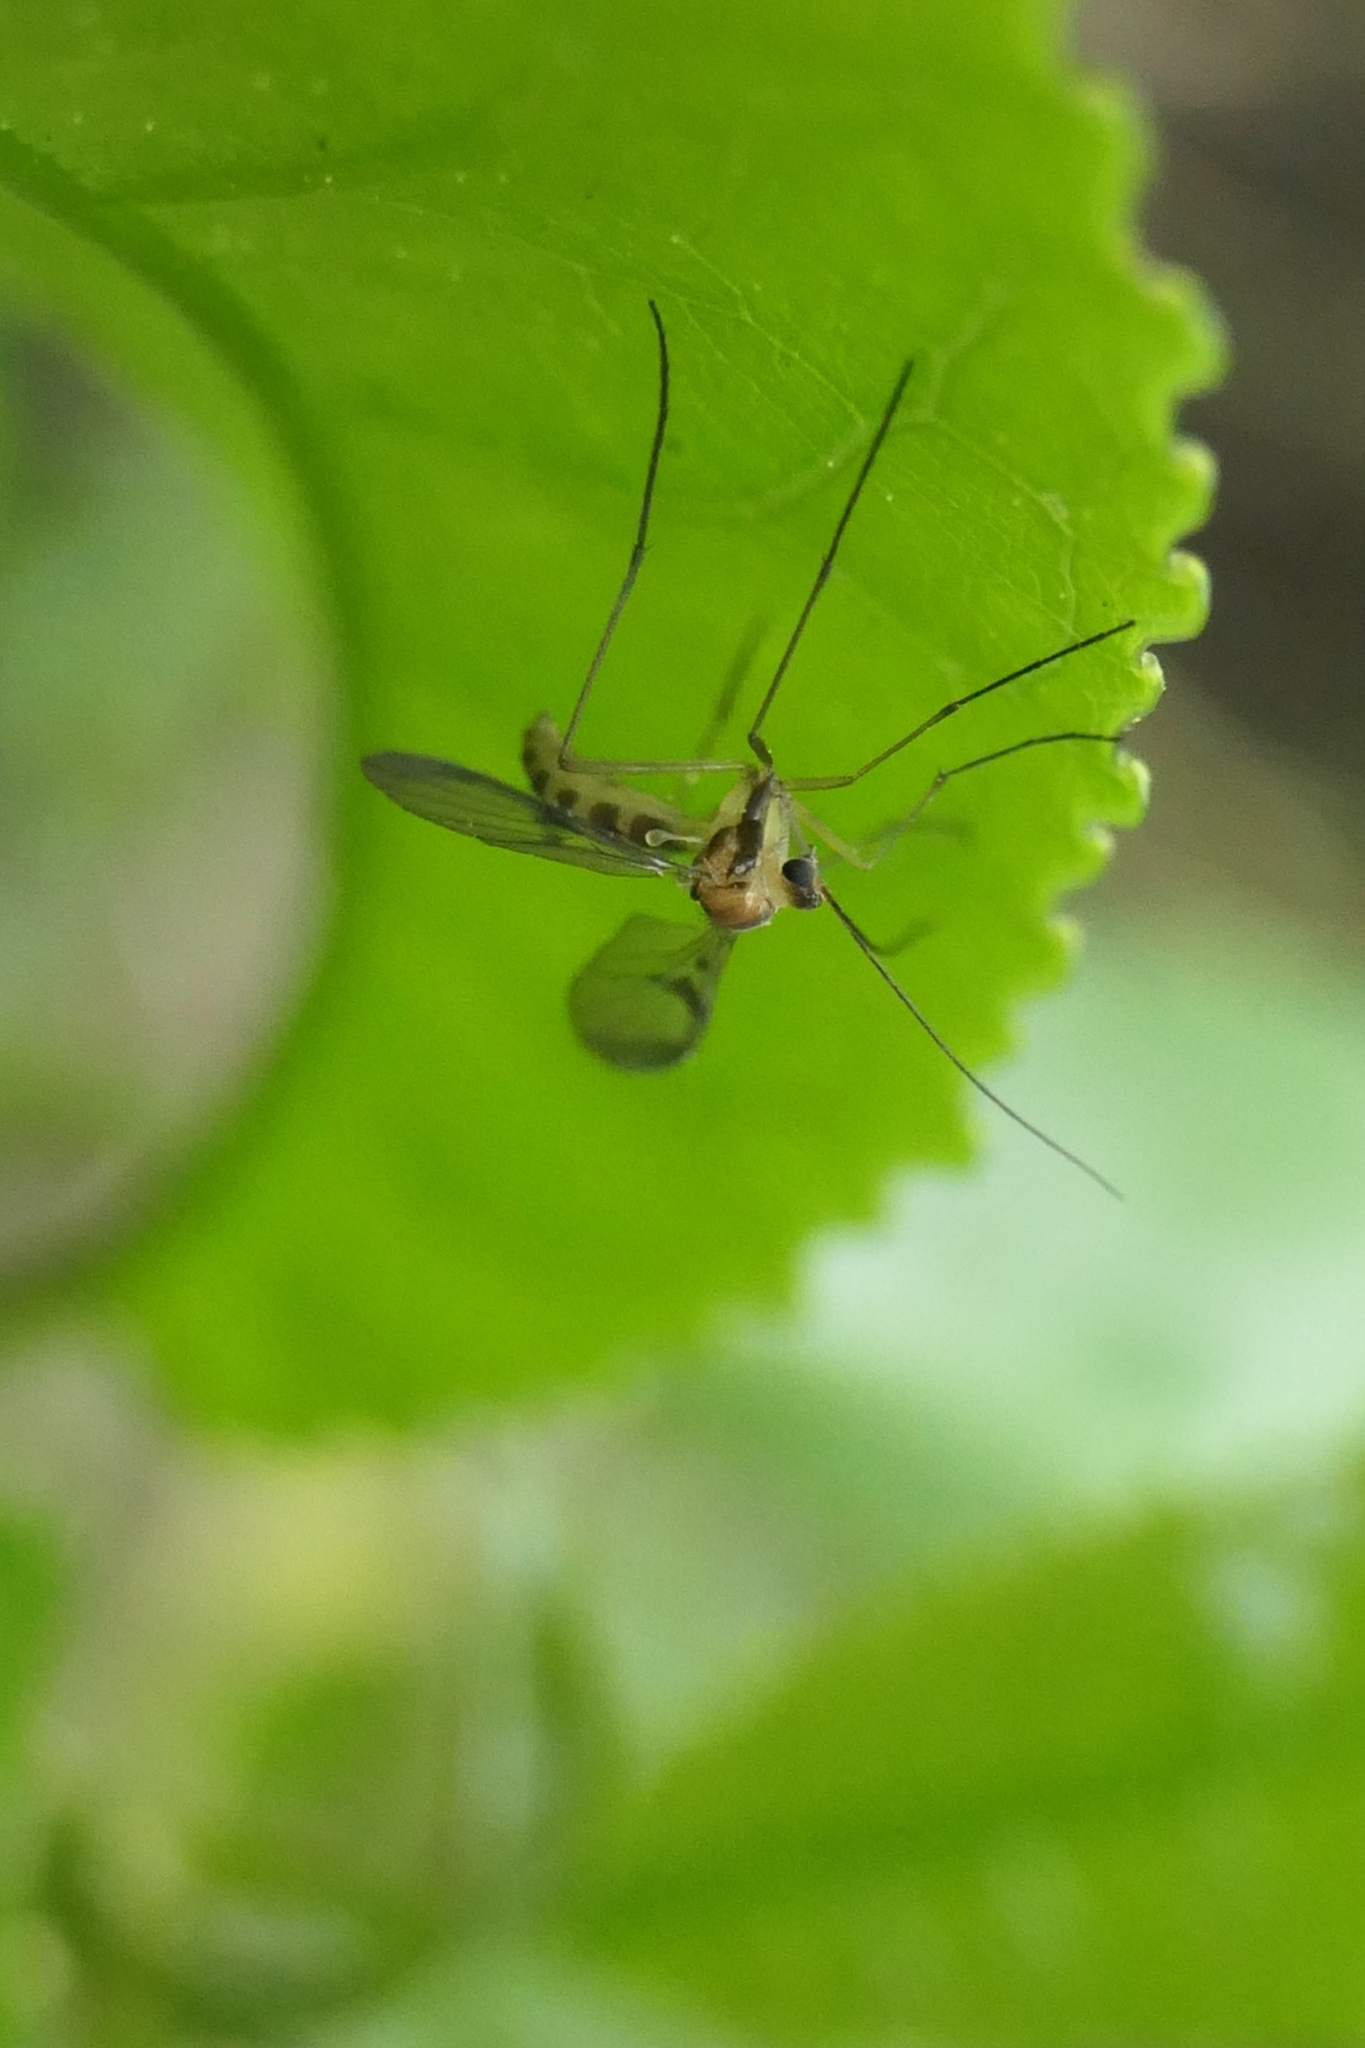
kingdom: Animalia
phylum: Arthropoda
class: Insecta
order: Diptera
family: Keroplatidae
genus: Macrocera
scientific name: Macrocera scoparia
